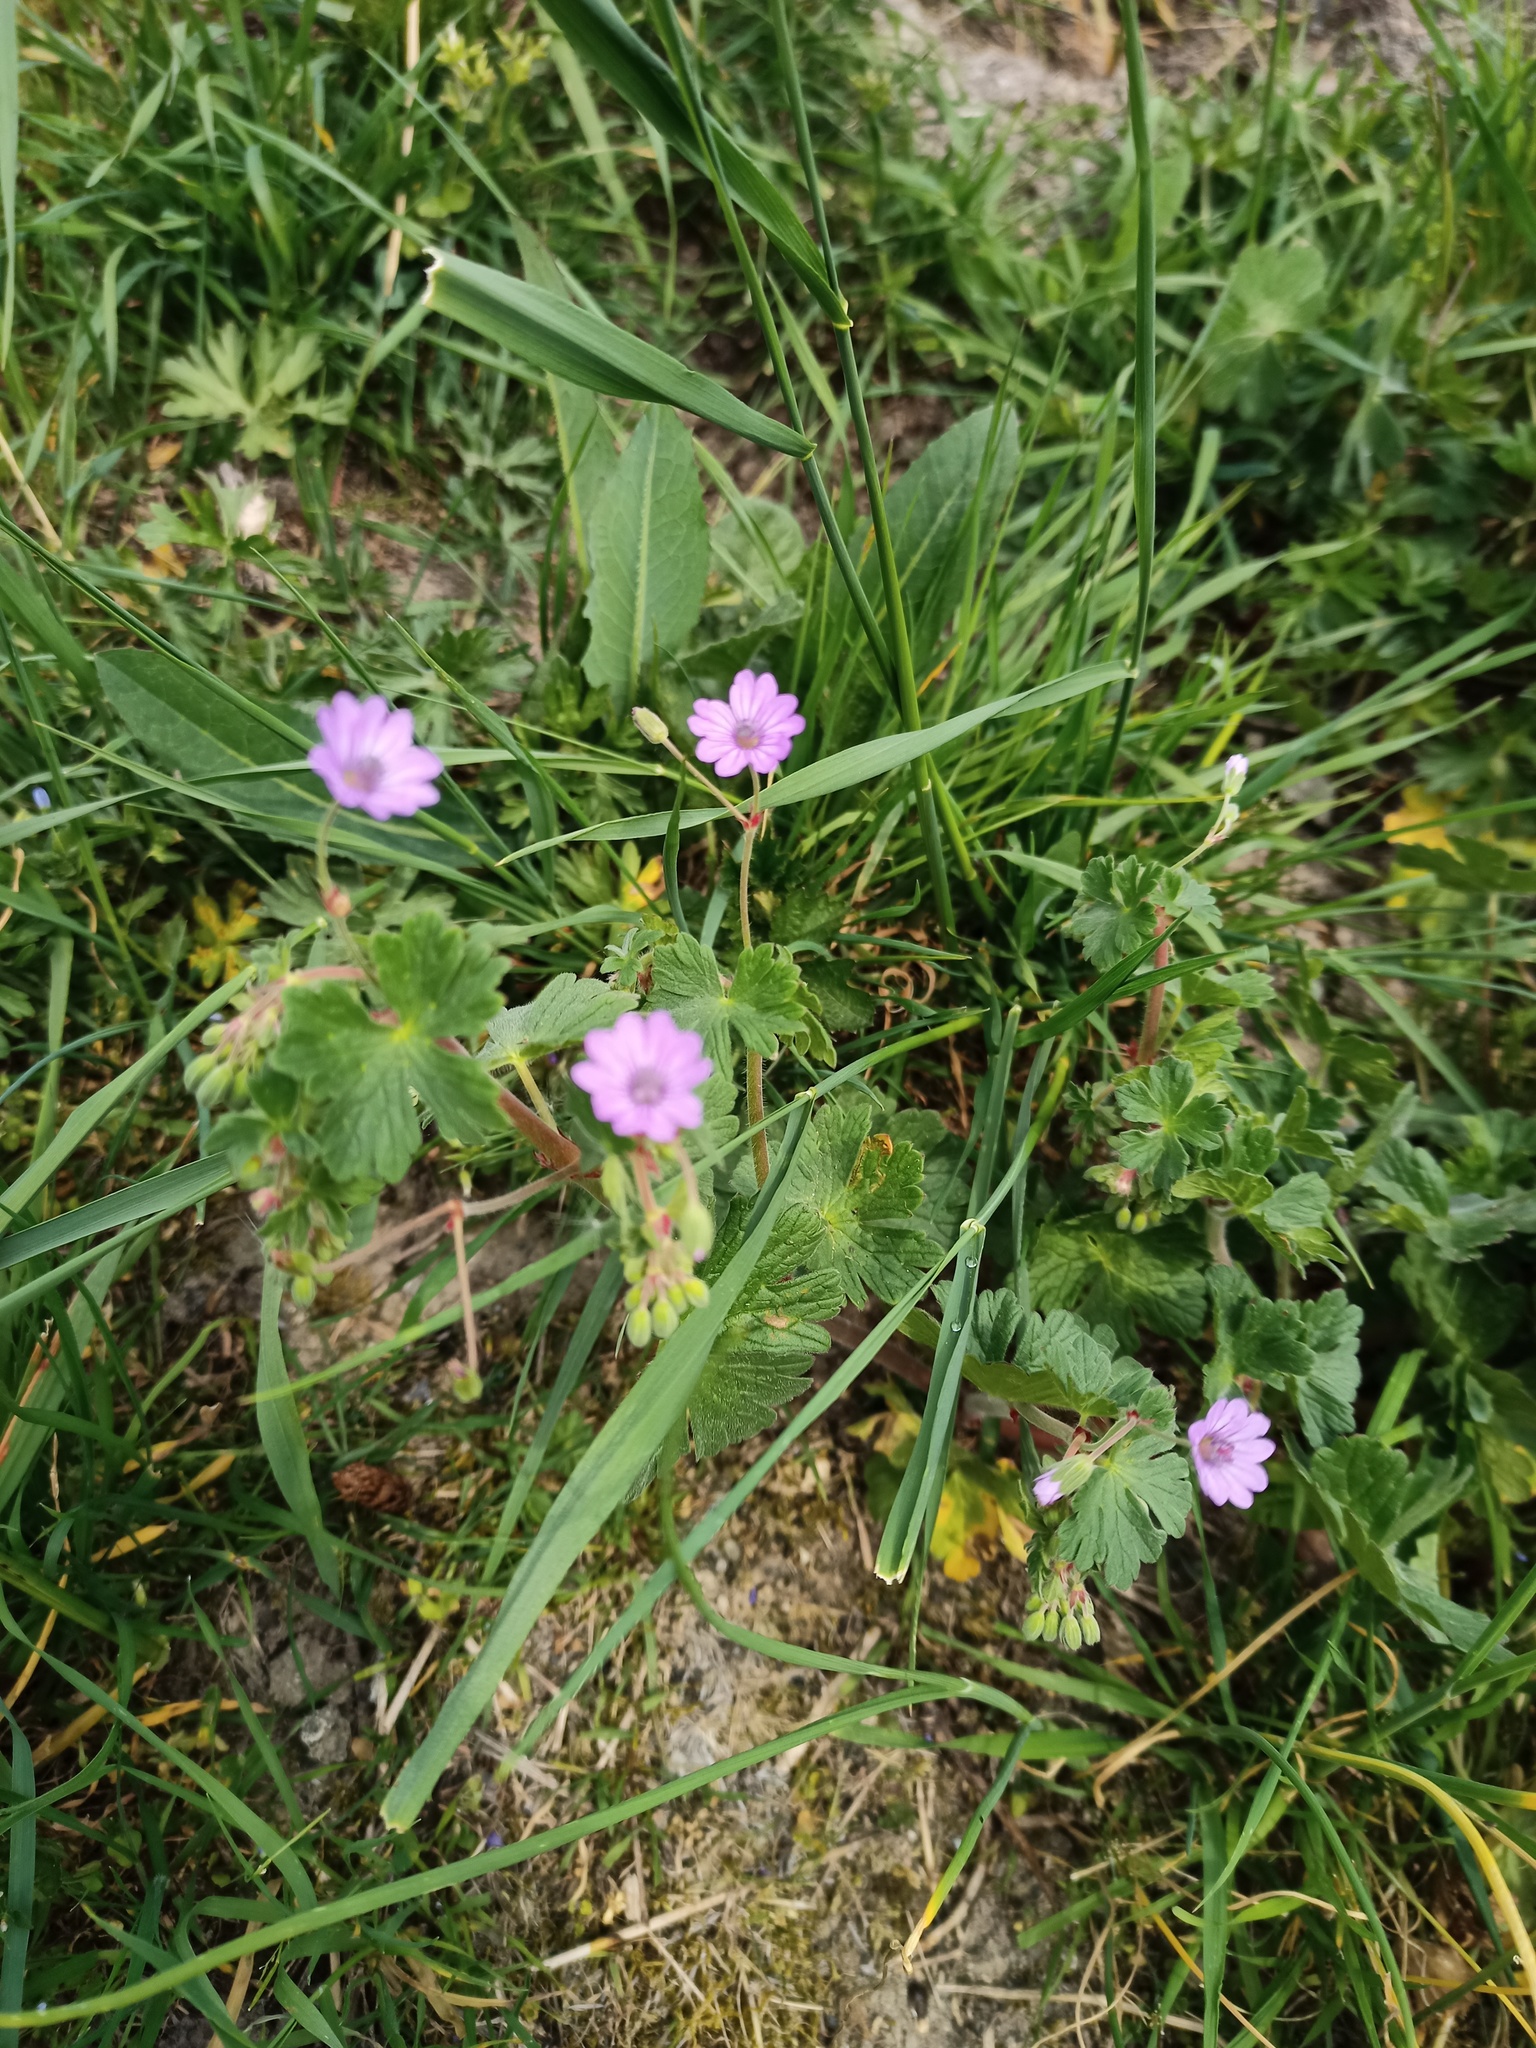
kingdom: Plantae
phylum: Tracheophyta
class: Magnoliopsida
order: Geraniales
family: Geraniaceae
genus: Geranium
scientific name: Geranium pyrenaicum
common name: Hedgerow crane's-bill
